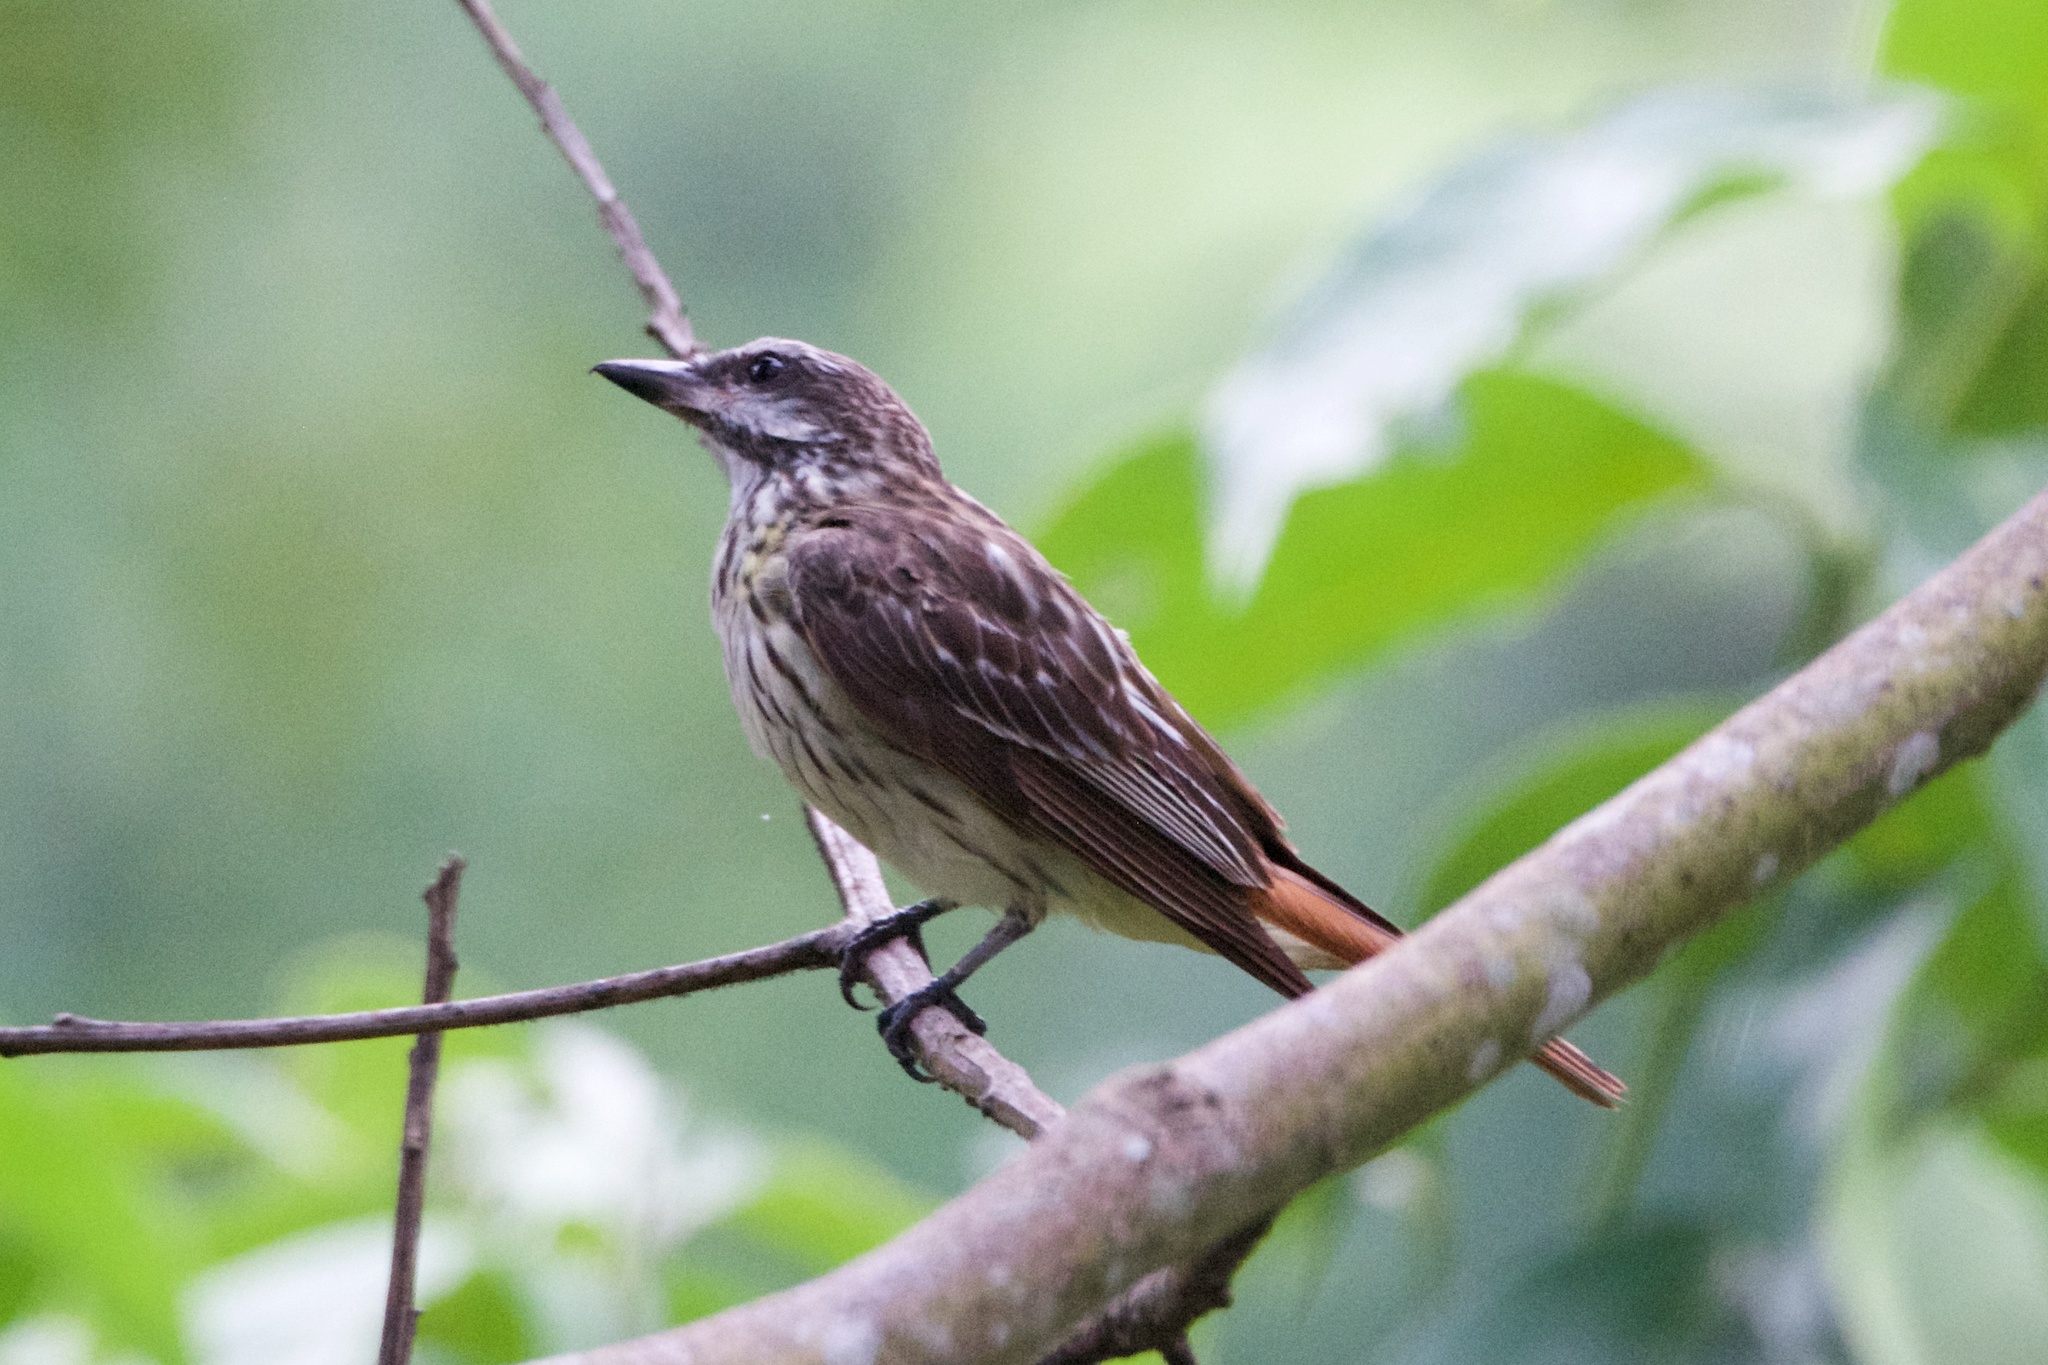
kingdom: Animalia
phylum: Chordata
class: Aves
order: Passeriformes
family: Tyrannidae
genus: Myiodynastes
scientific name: Myiodynastes maculatus
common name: Streaked flycatcher
